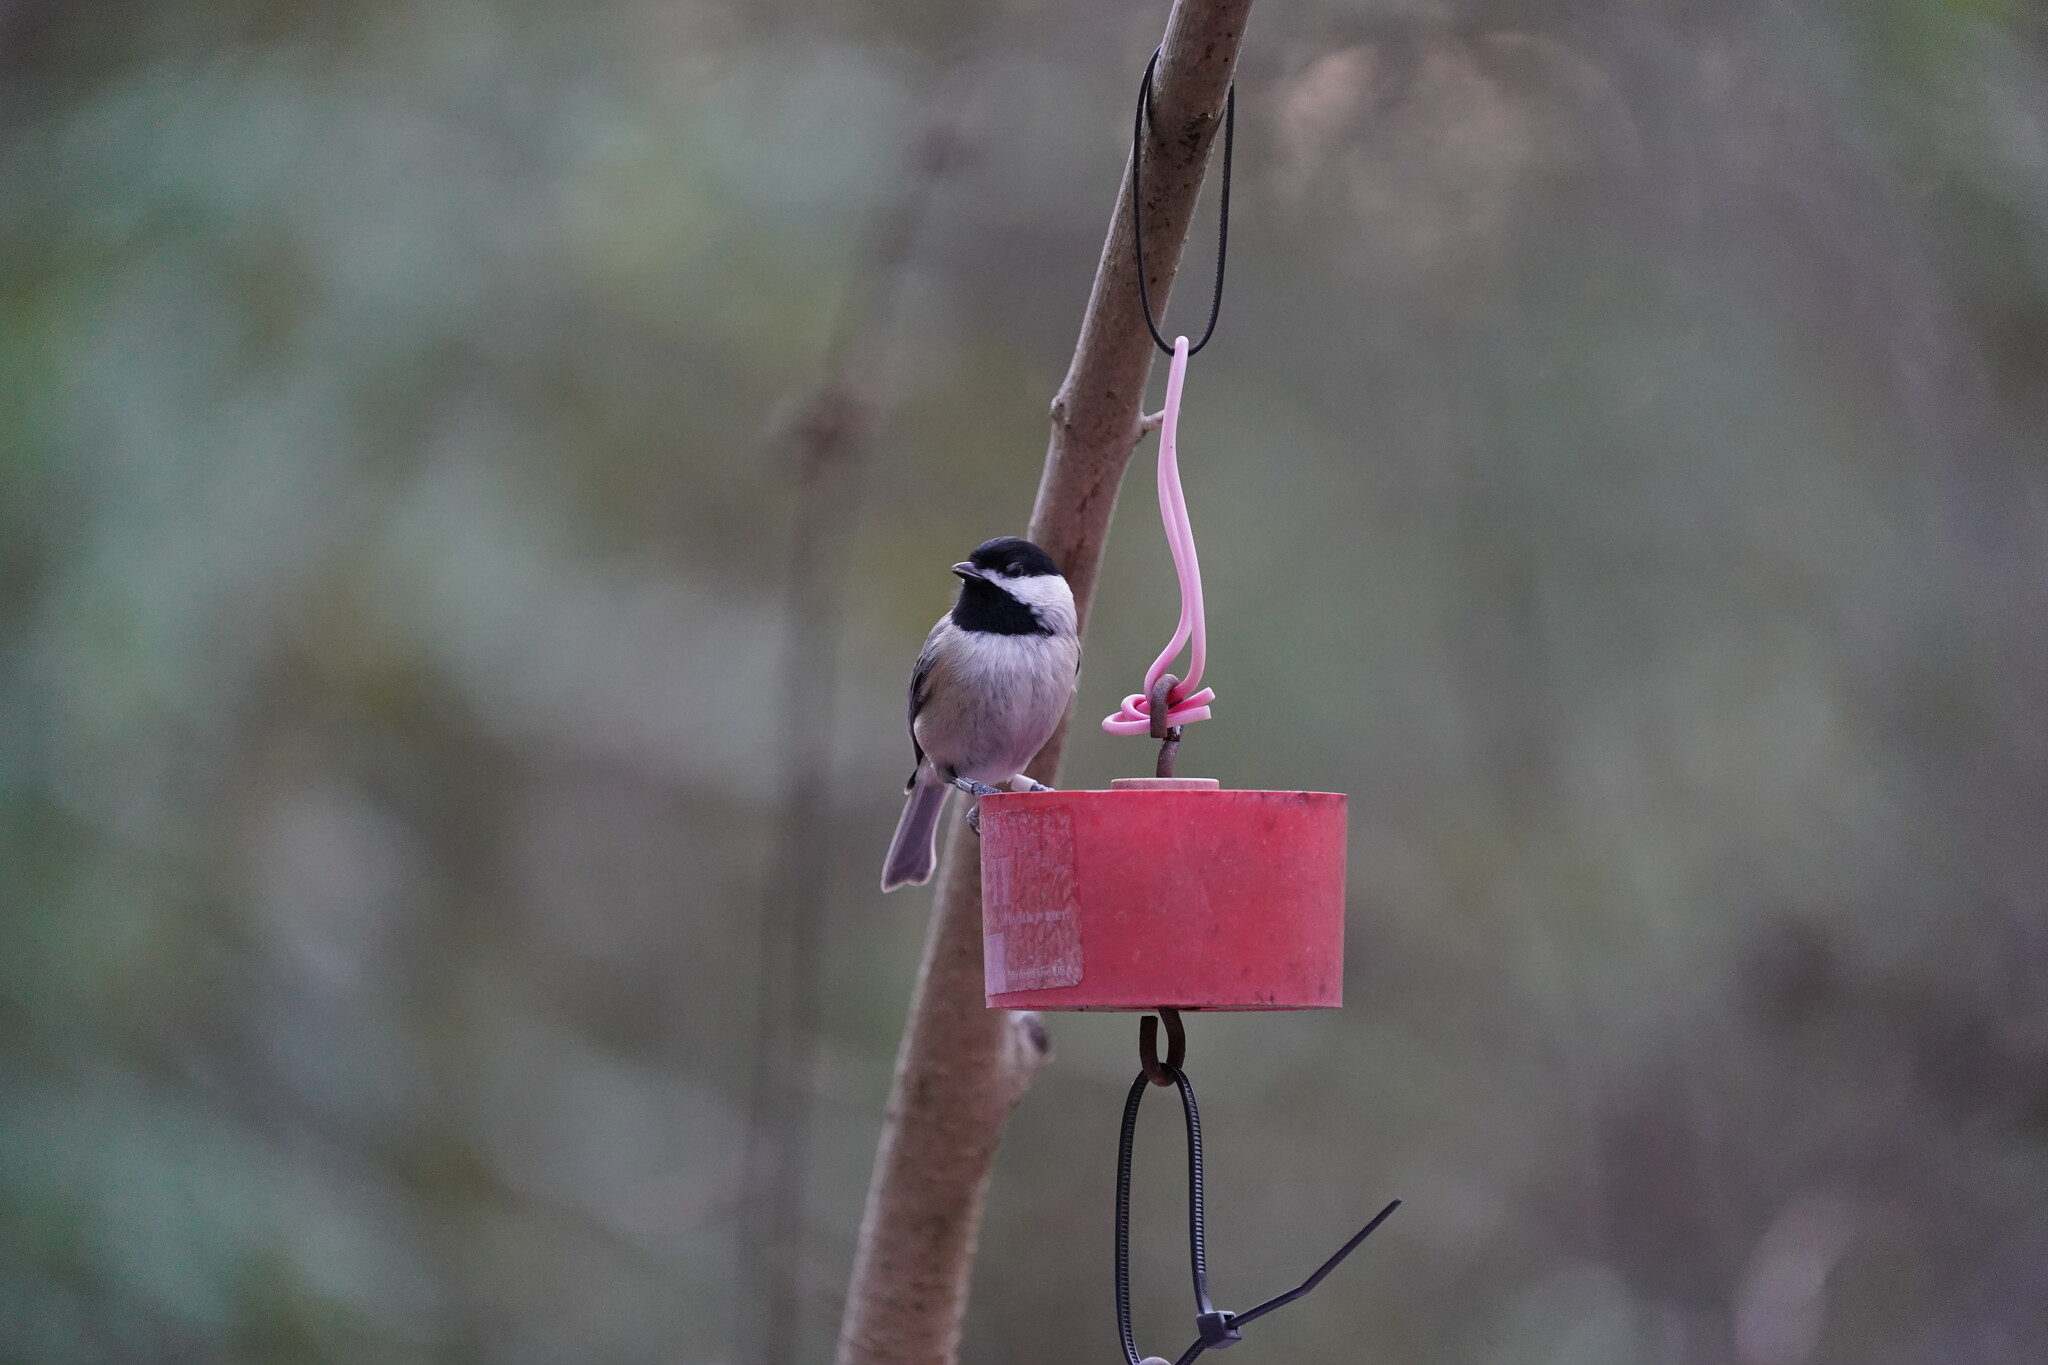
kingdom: Animalia
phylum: Chordata
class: Aves
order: Passeriformes
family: Paridae
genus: Poecile
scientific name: Poecile carolinensis
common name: Carolina chickadee
